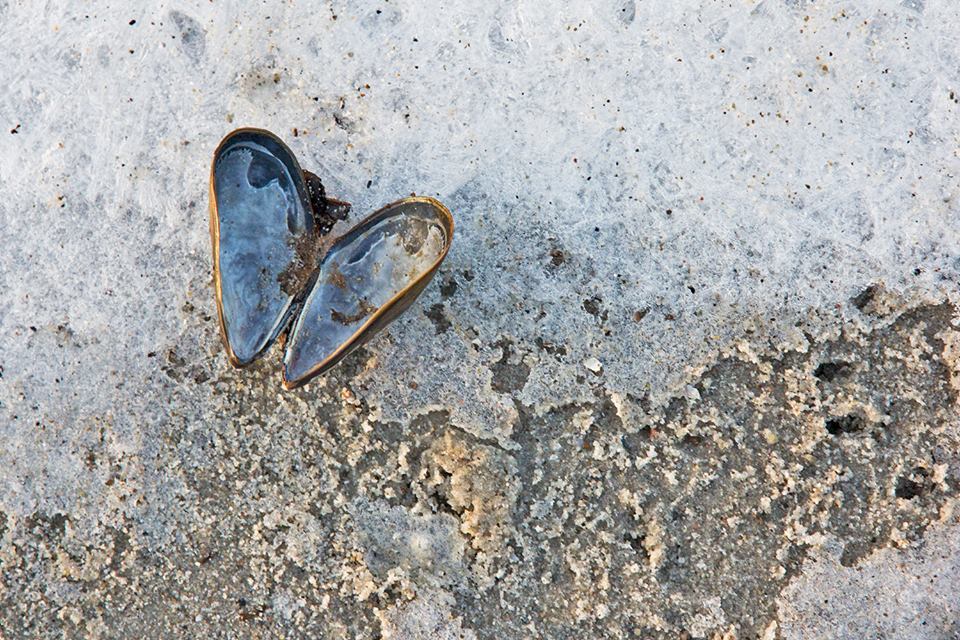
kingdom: Animalia
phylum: Mollusca
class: Bivalvia
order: Mytilida
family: Mytilidae
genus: Mytilus
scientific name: Mytilus edulis
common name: Blue mussel
